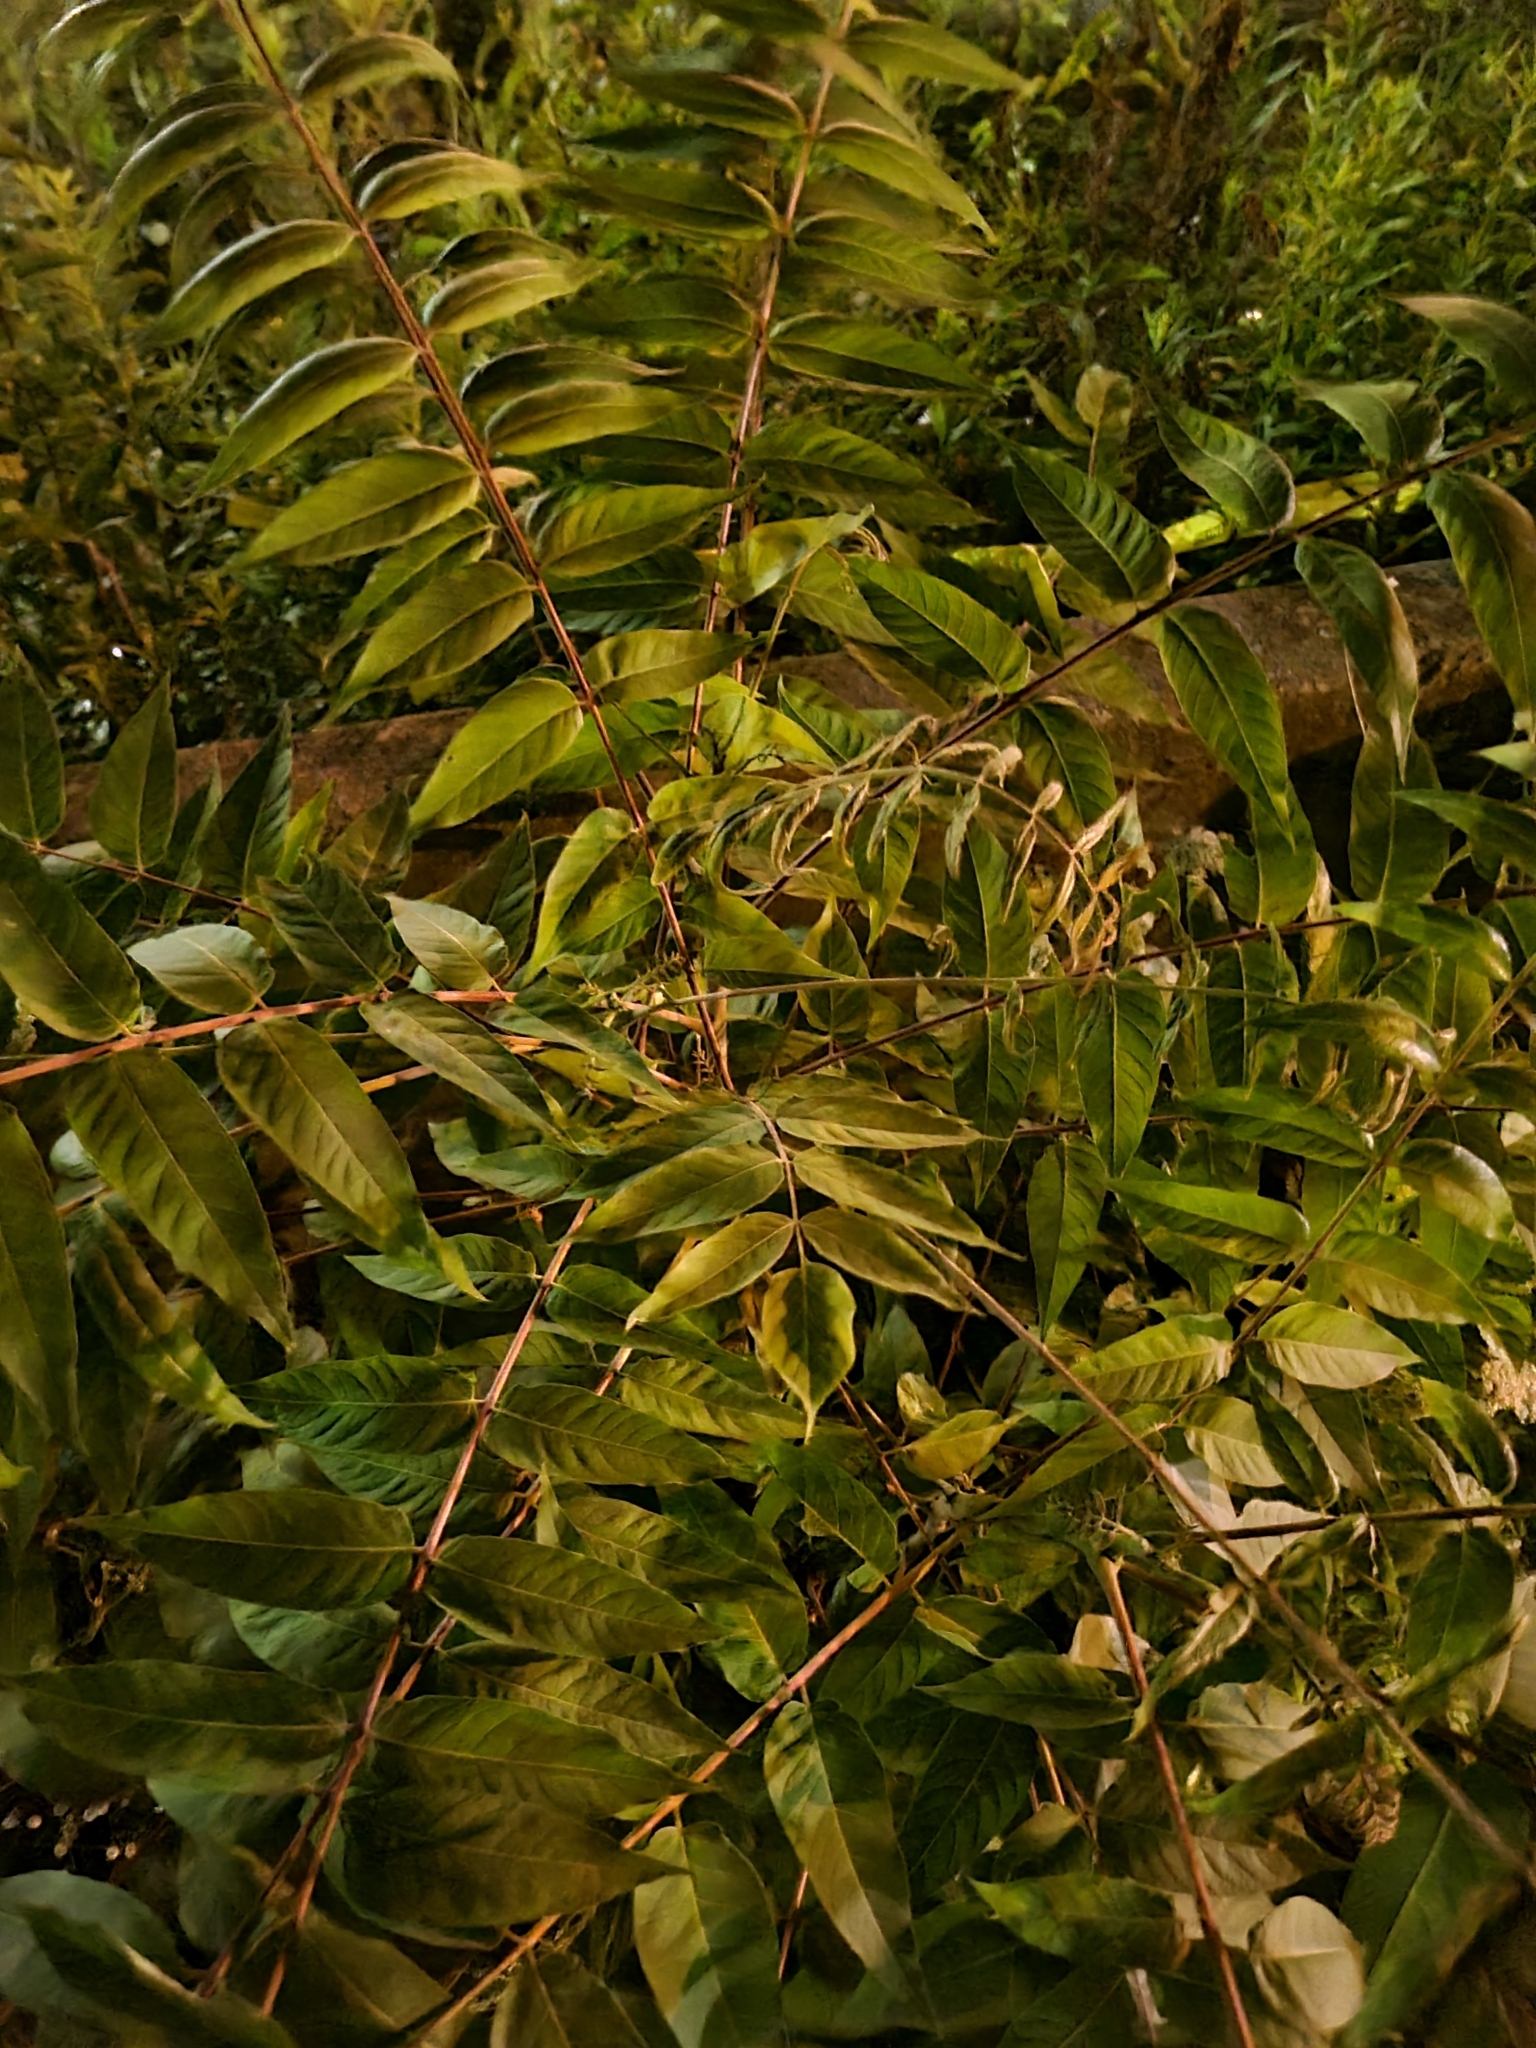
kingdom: Plantae
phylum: Tracheophyta
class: Magnoliopsida
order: Sapindales
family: Simaroubaceae
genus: Ailanthus
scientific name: Ailanthus altissima
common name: Tree-of-heaven
